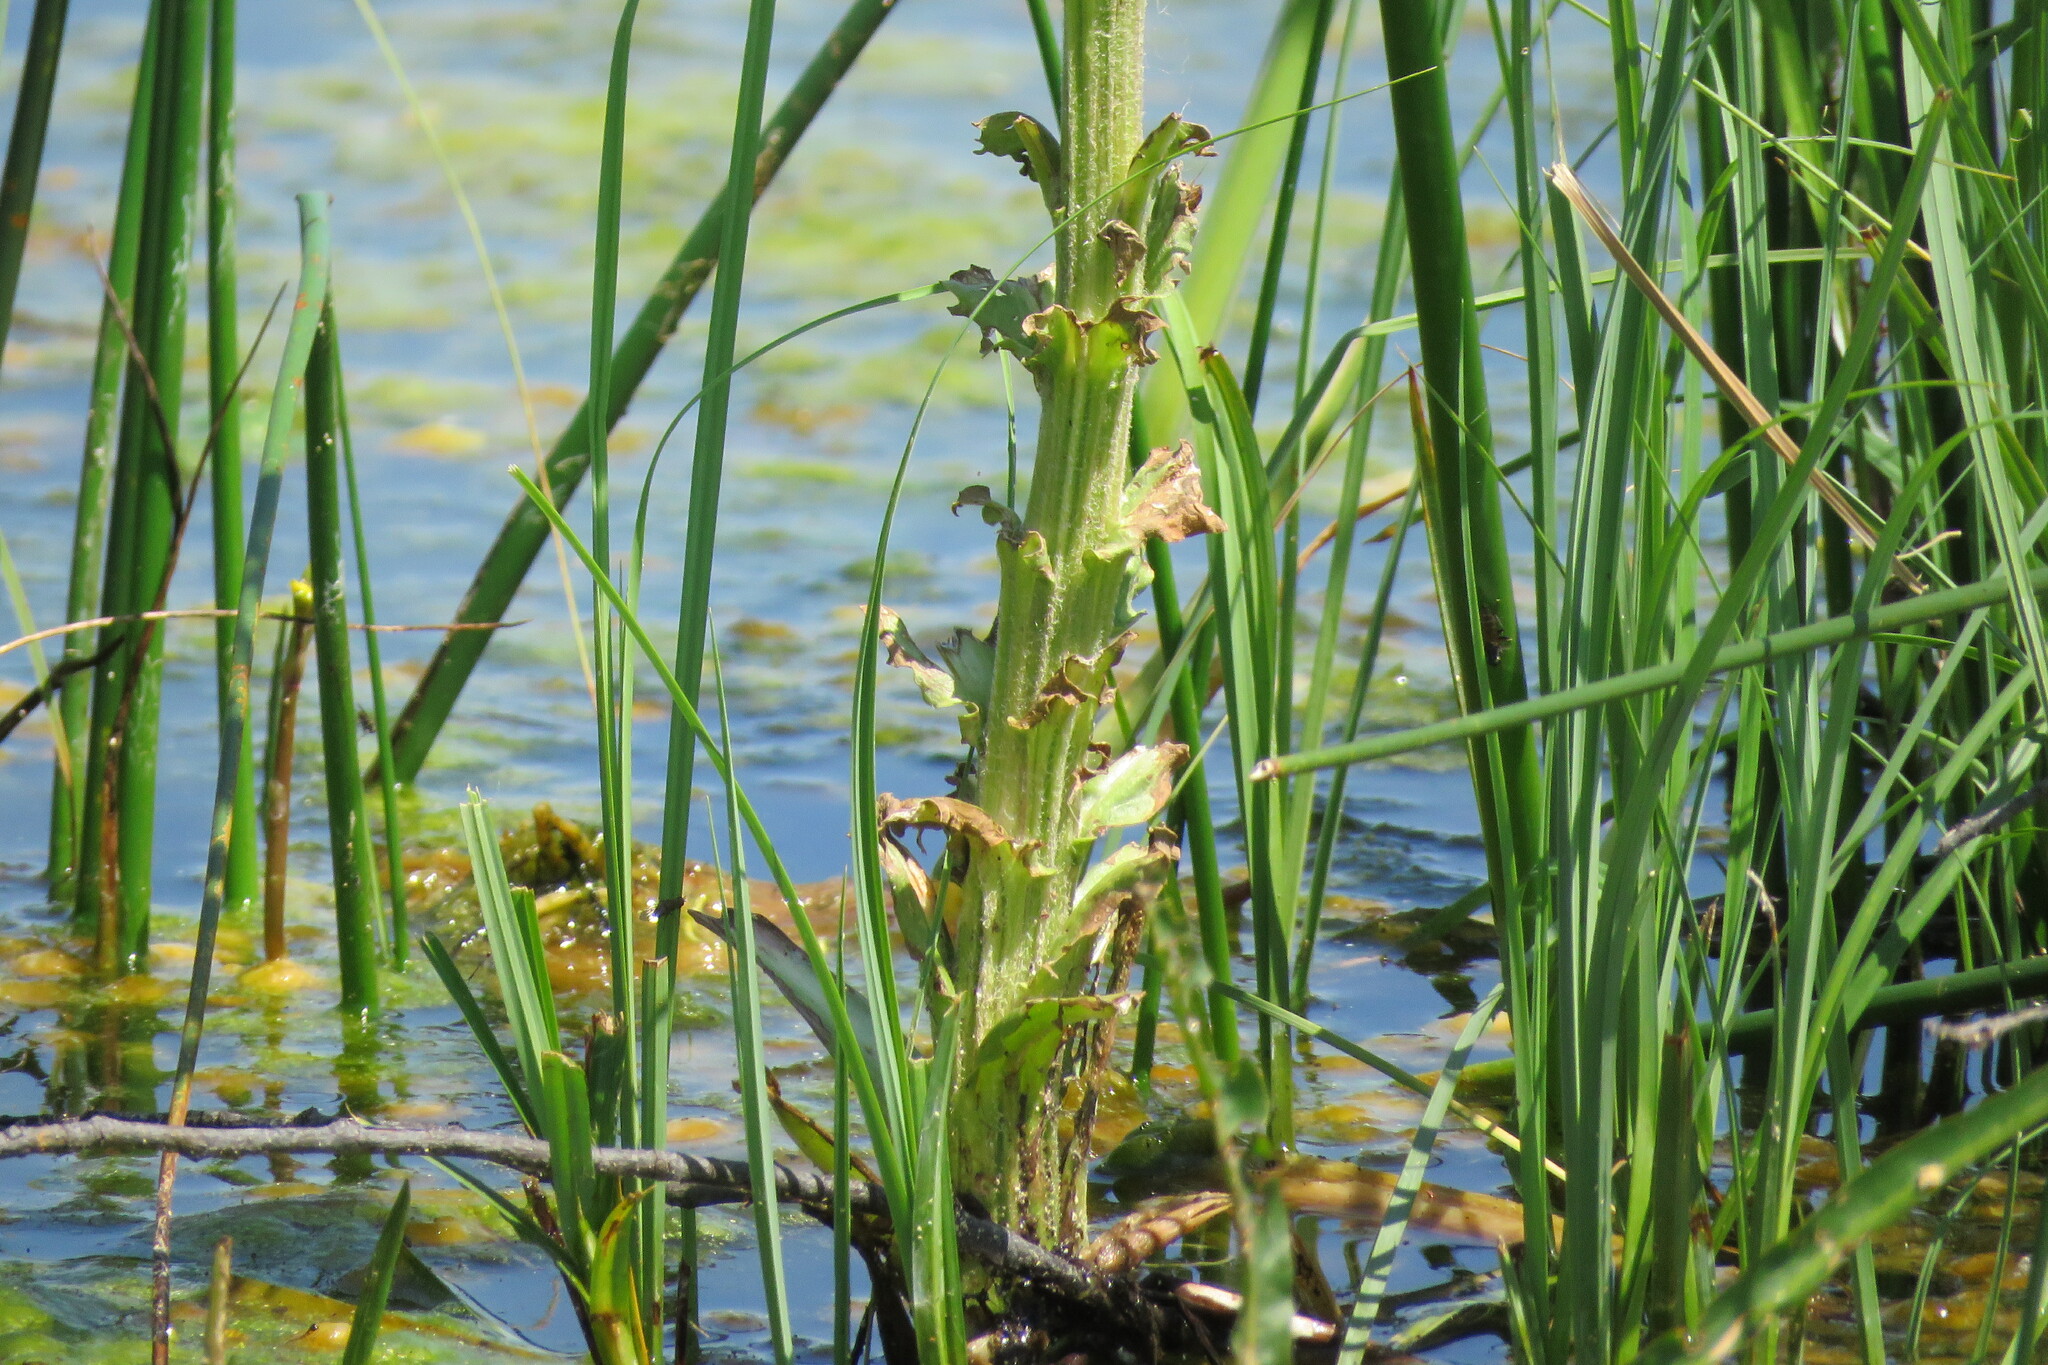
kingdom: Plantae
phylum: Tracheophyta
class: Magnoliopsida
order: Asterales
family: Asteraceae
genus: Tephroseris
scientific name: Tephroseris palustris
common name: Marsh fleawort
